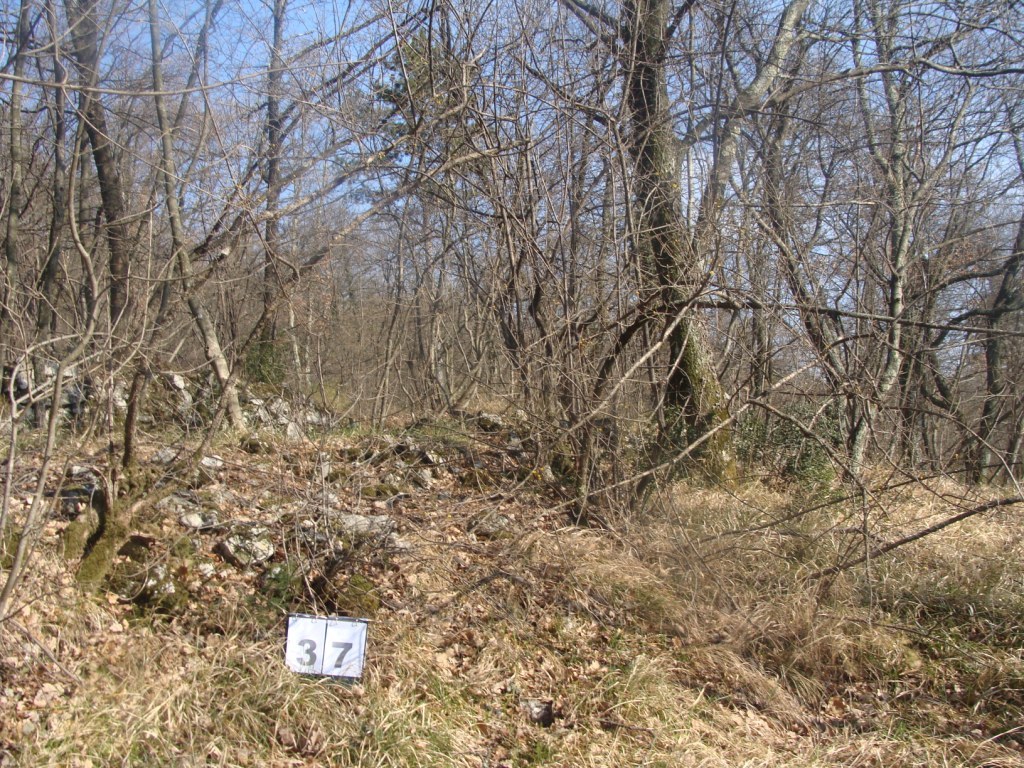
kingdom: Plantae
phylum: Tracheophyta
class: Magnoliopsida
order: Cornales
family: Cornaceae
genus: Cornus
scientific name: Cornus mas
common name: Cornelian-cherry
